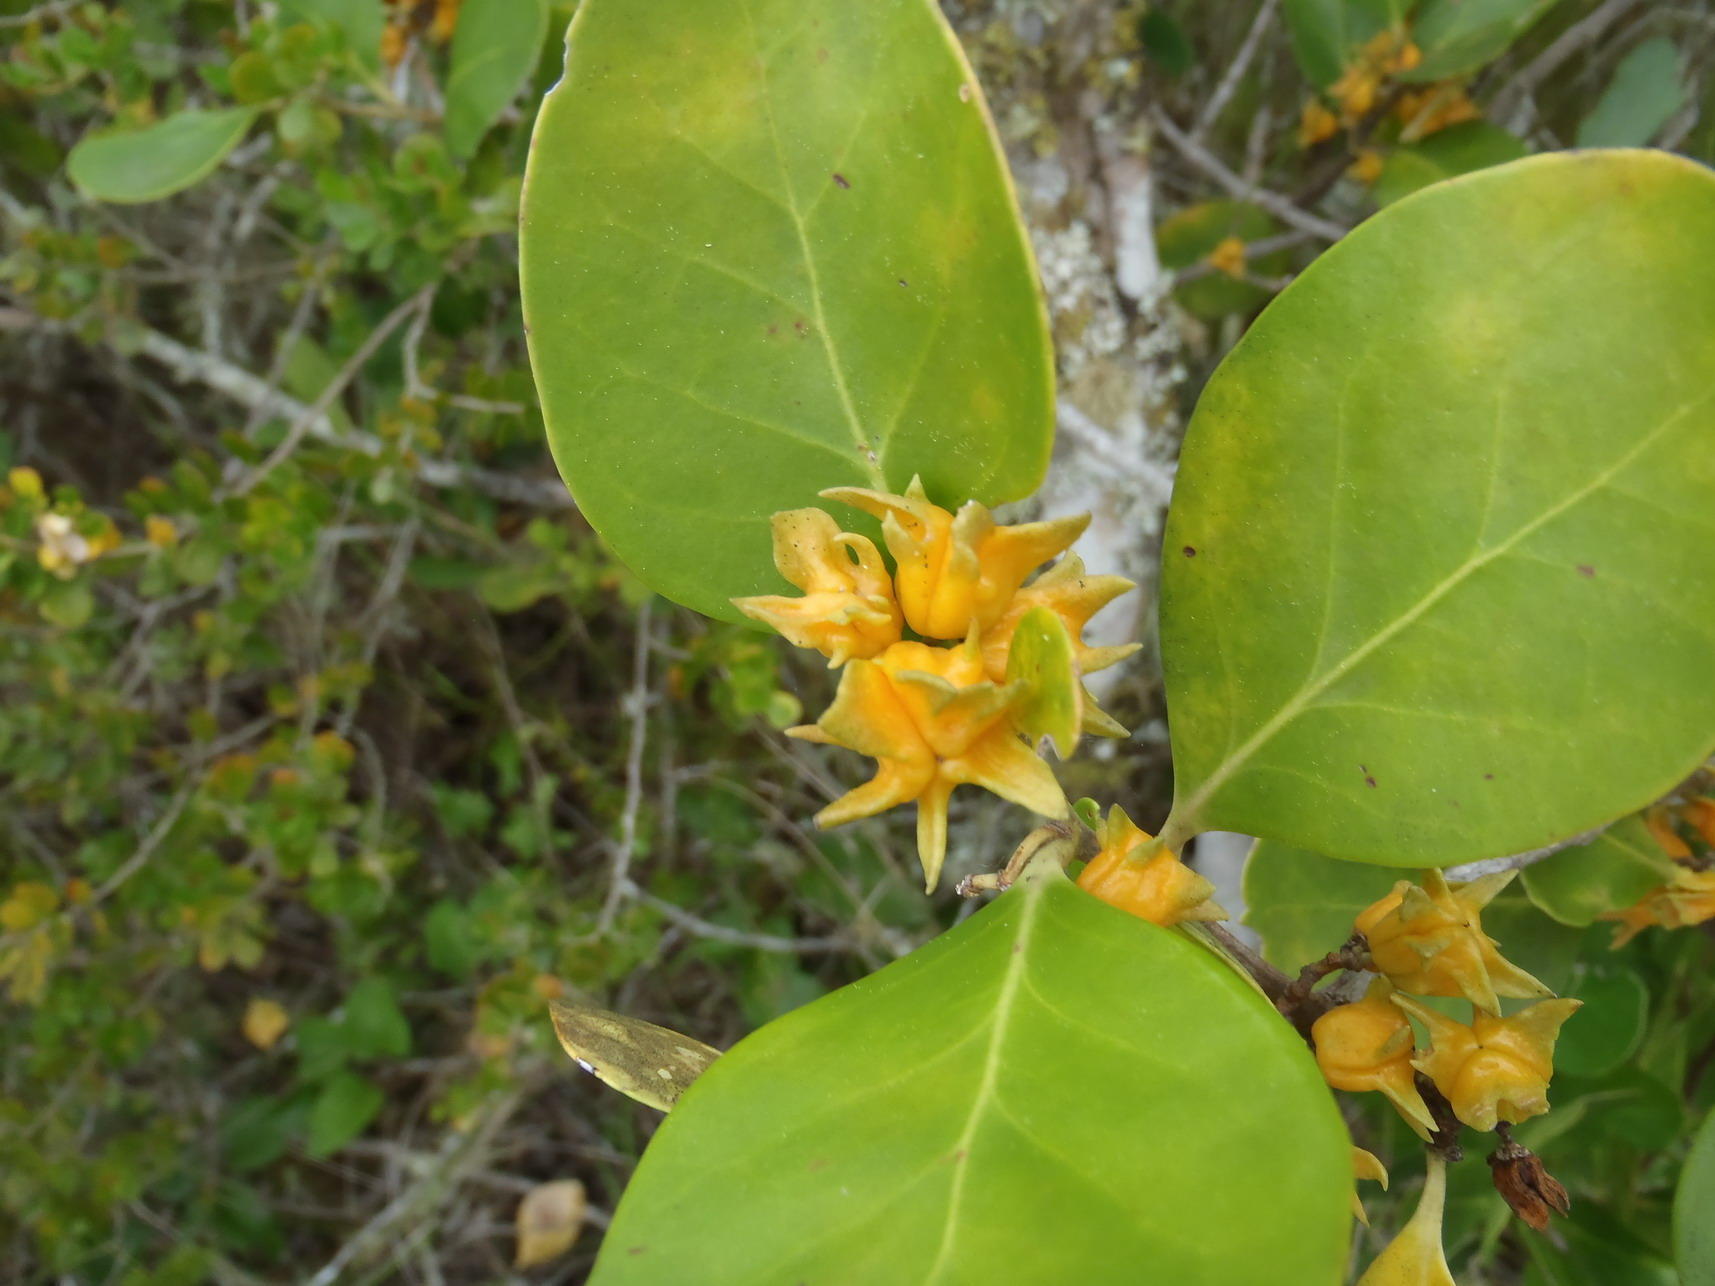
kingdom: Plantae
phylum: Tracheophyta
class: Magnoliopsida
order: Celastrales
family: Celastraceae
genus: Pterocelastrus
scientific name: Pterocelastrus tricuspidatus
